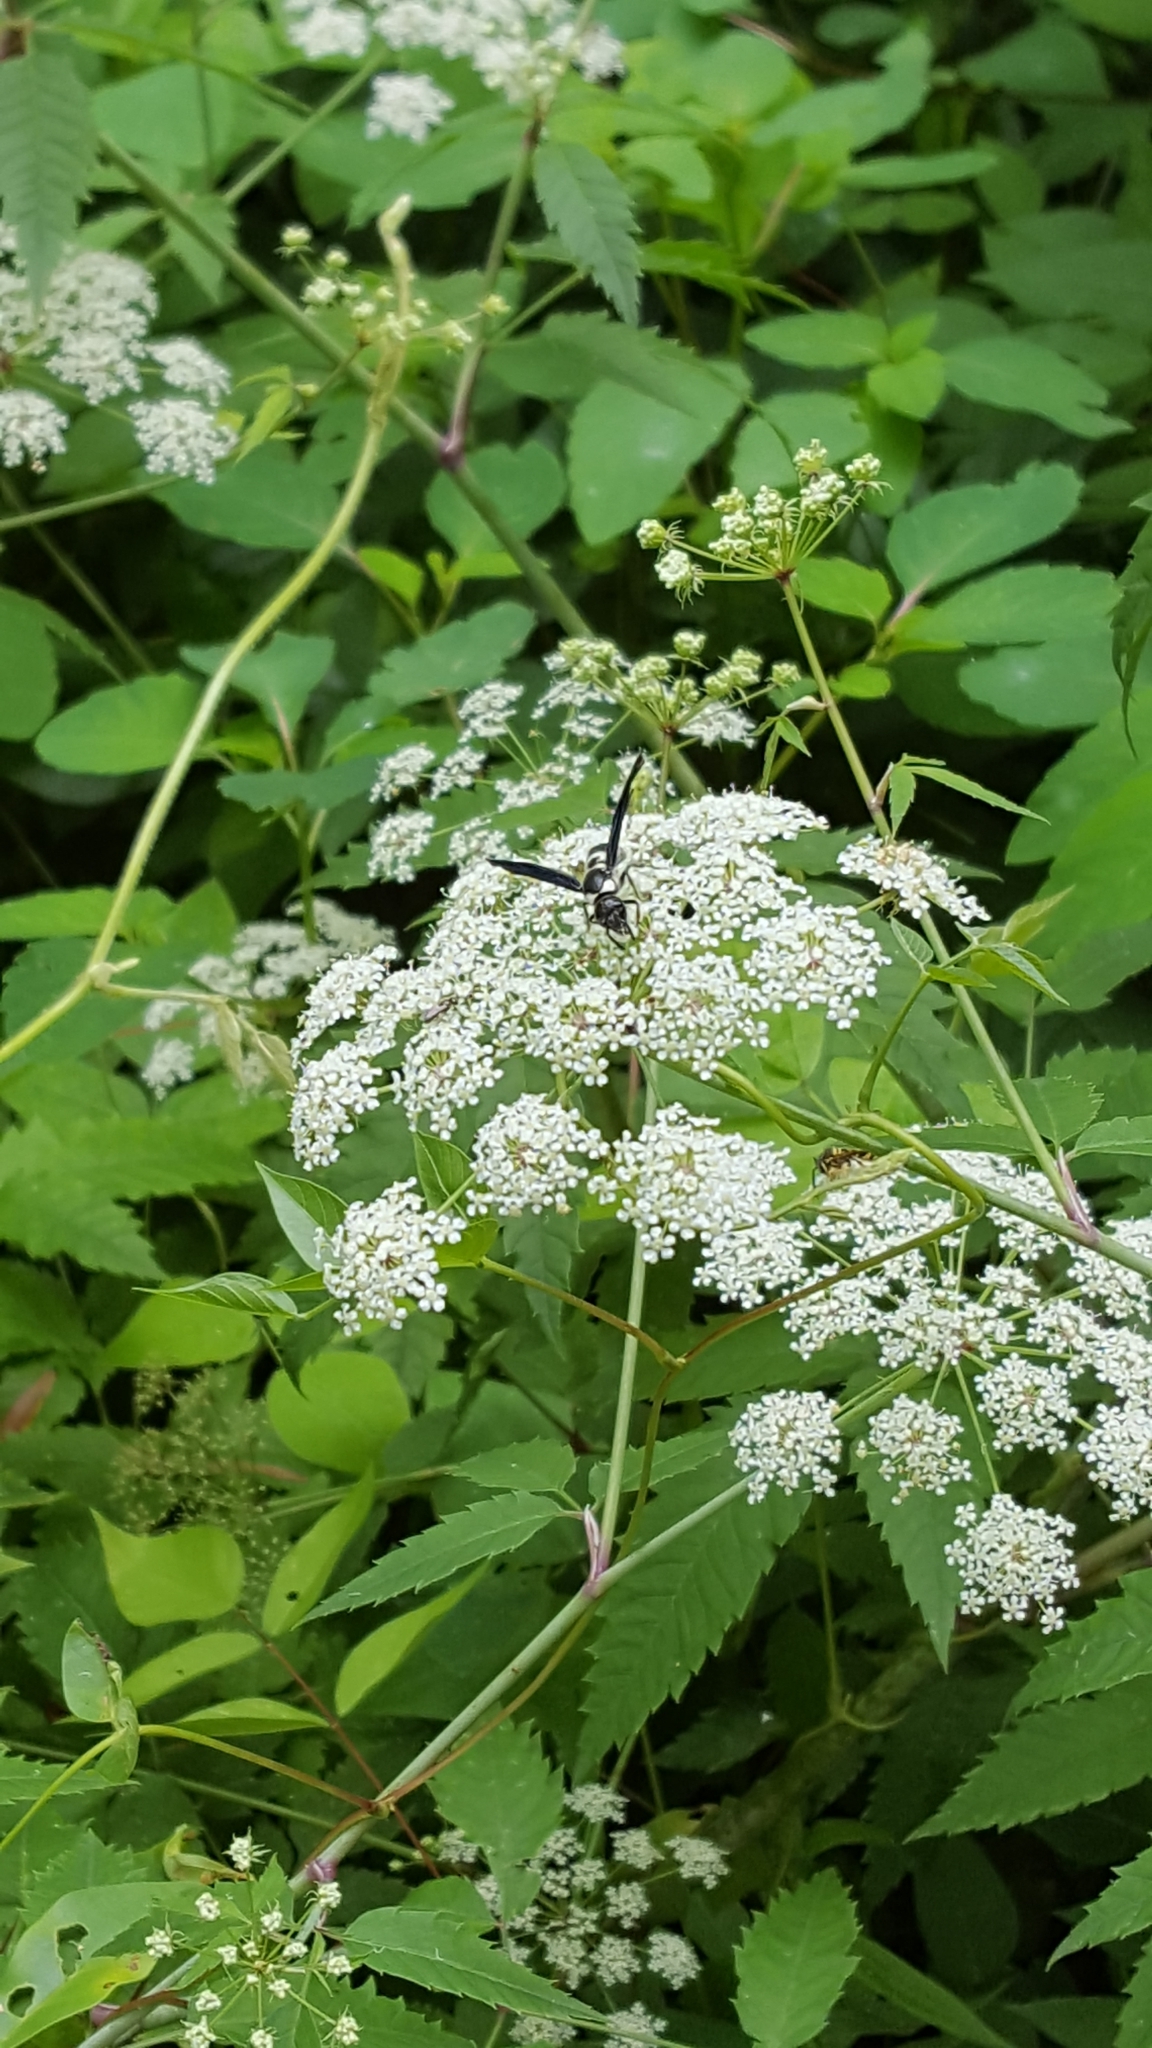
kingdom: Animalia
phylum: Arthropoda
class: Insecta
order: Hymenoptera
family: Eumenidae
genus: Pseudodynerus
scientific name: Pseudodynerus quadrisectus
